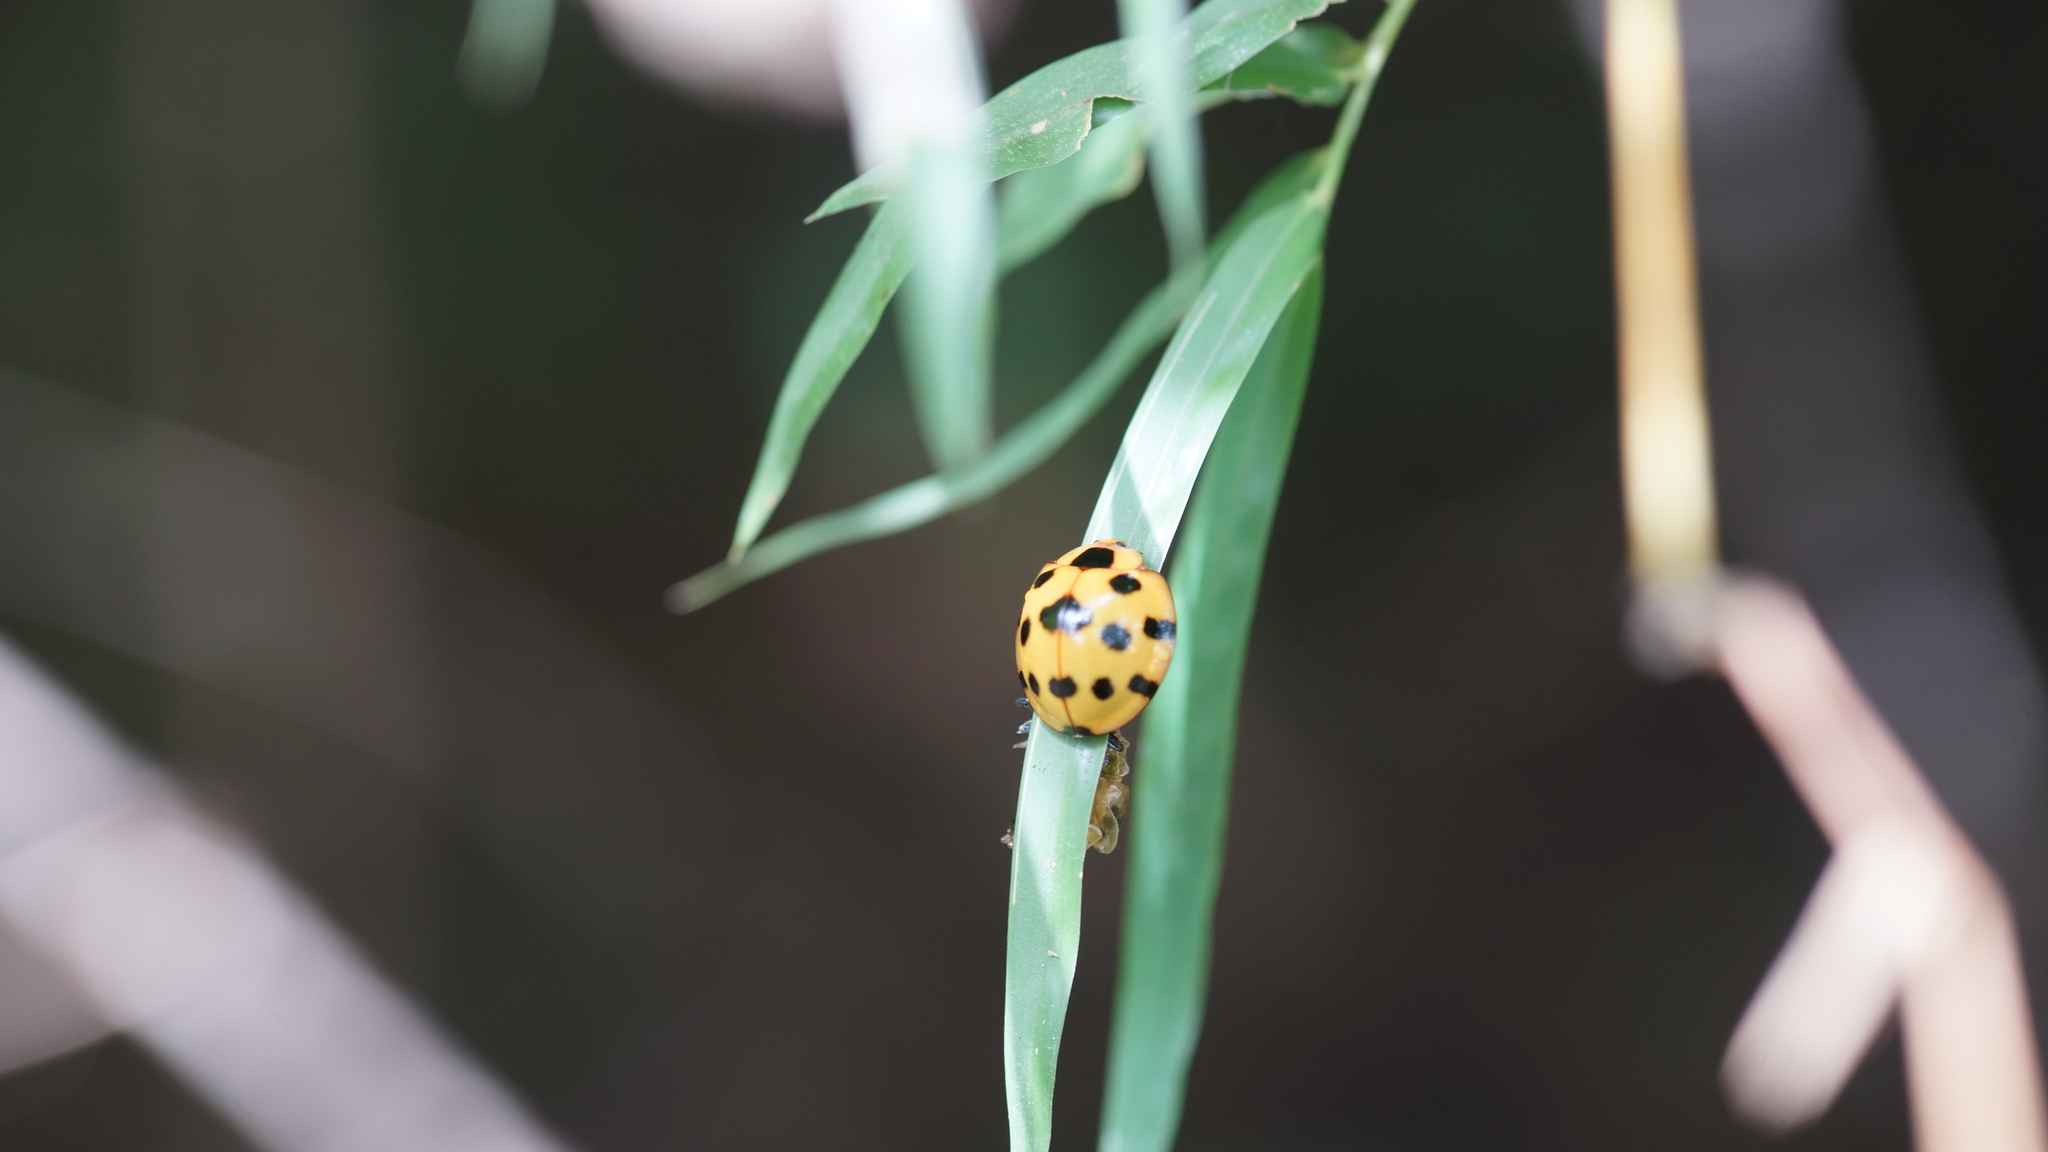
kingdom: Animalia
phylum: Arthropoda
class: Insecta
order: Coleoptera
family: Coccinellidae
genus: Synonycha
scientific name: Synonycha grandis
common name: Lady beetle
